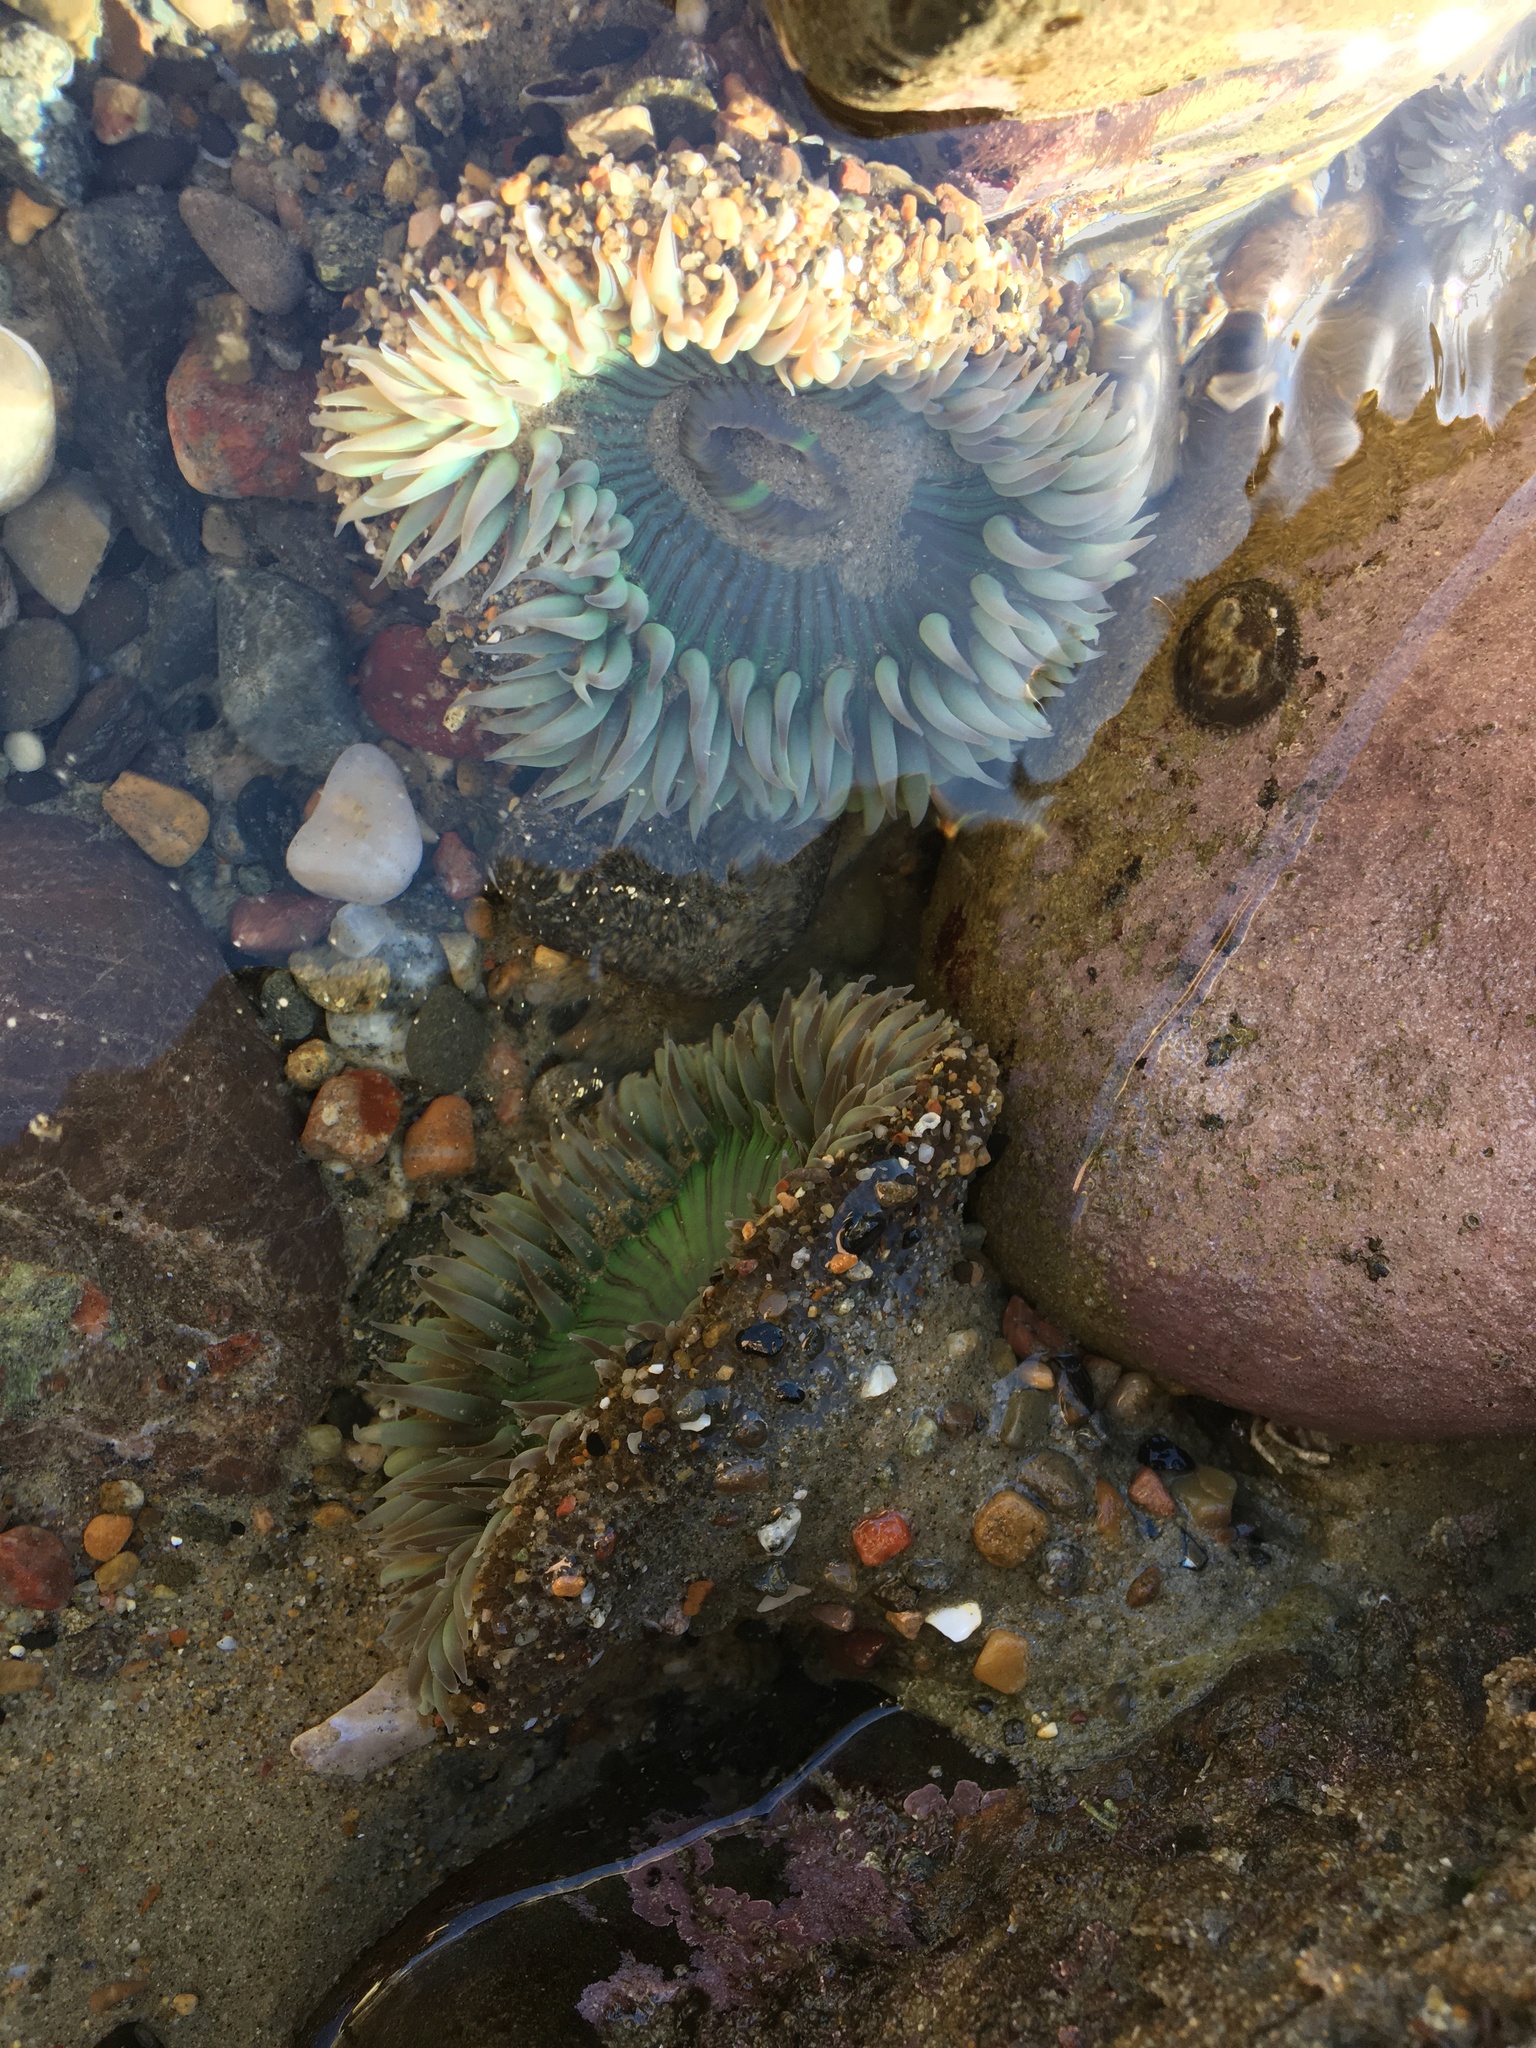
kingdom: Animalia
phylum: Cnidaria
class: Anthozoa
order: Actiniaria
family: Actiniidae
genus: Anthopleura
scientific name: Anthopleura sola
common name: Sun anemone
